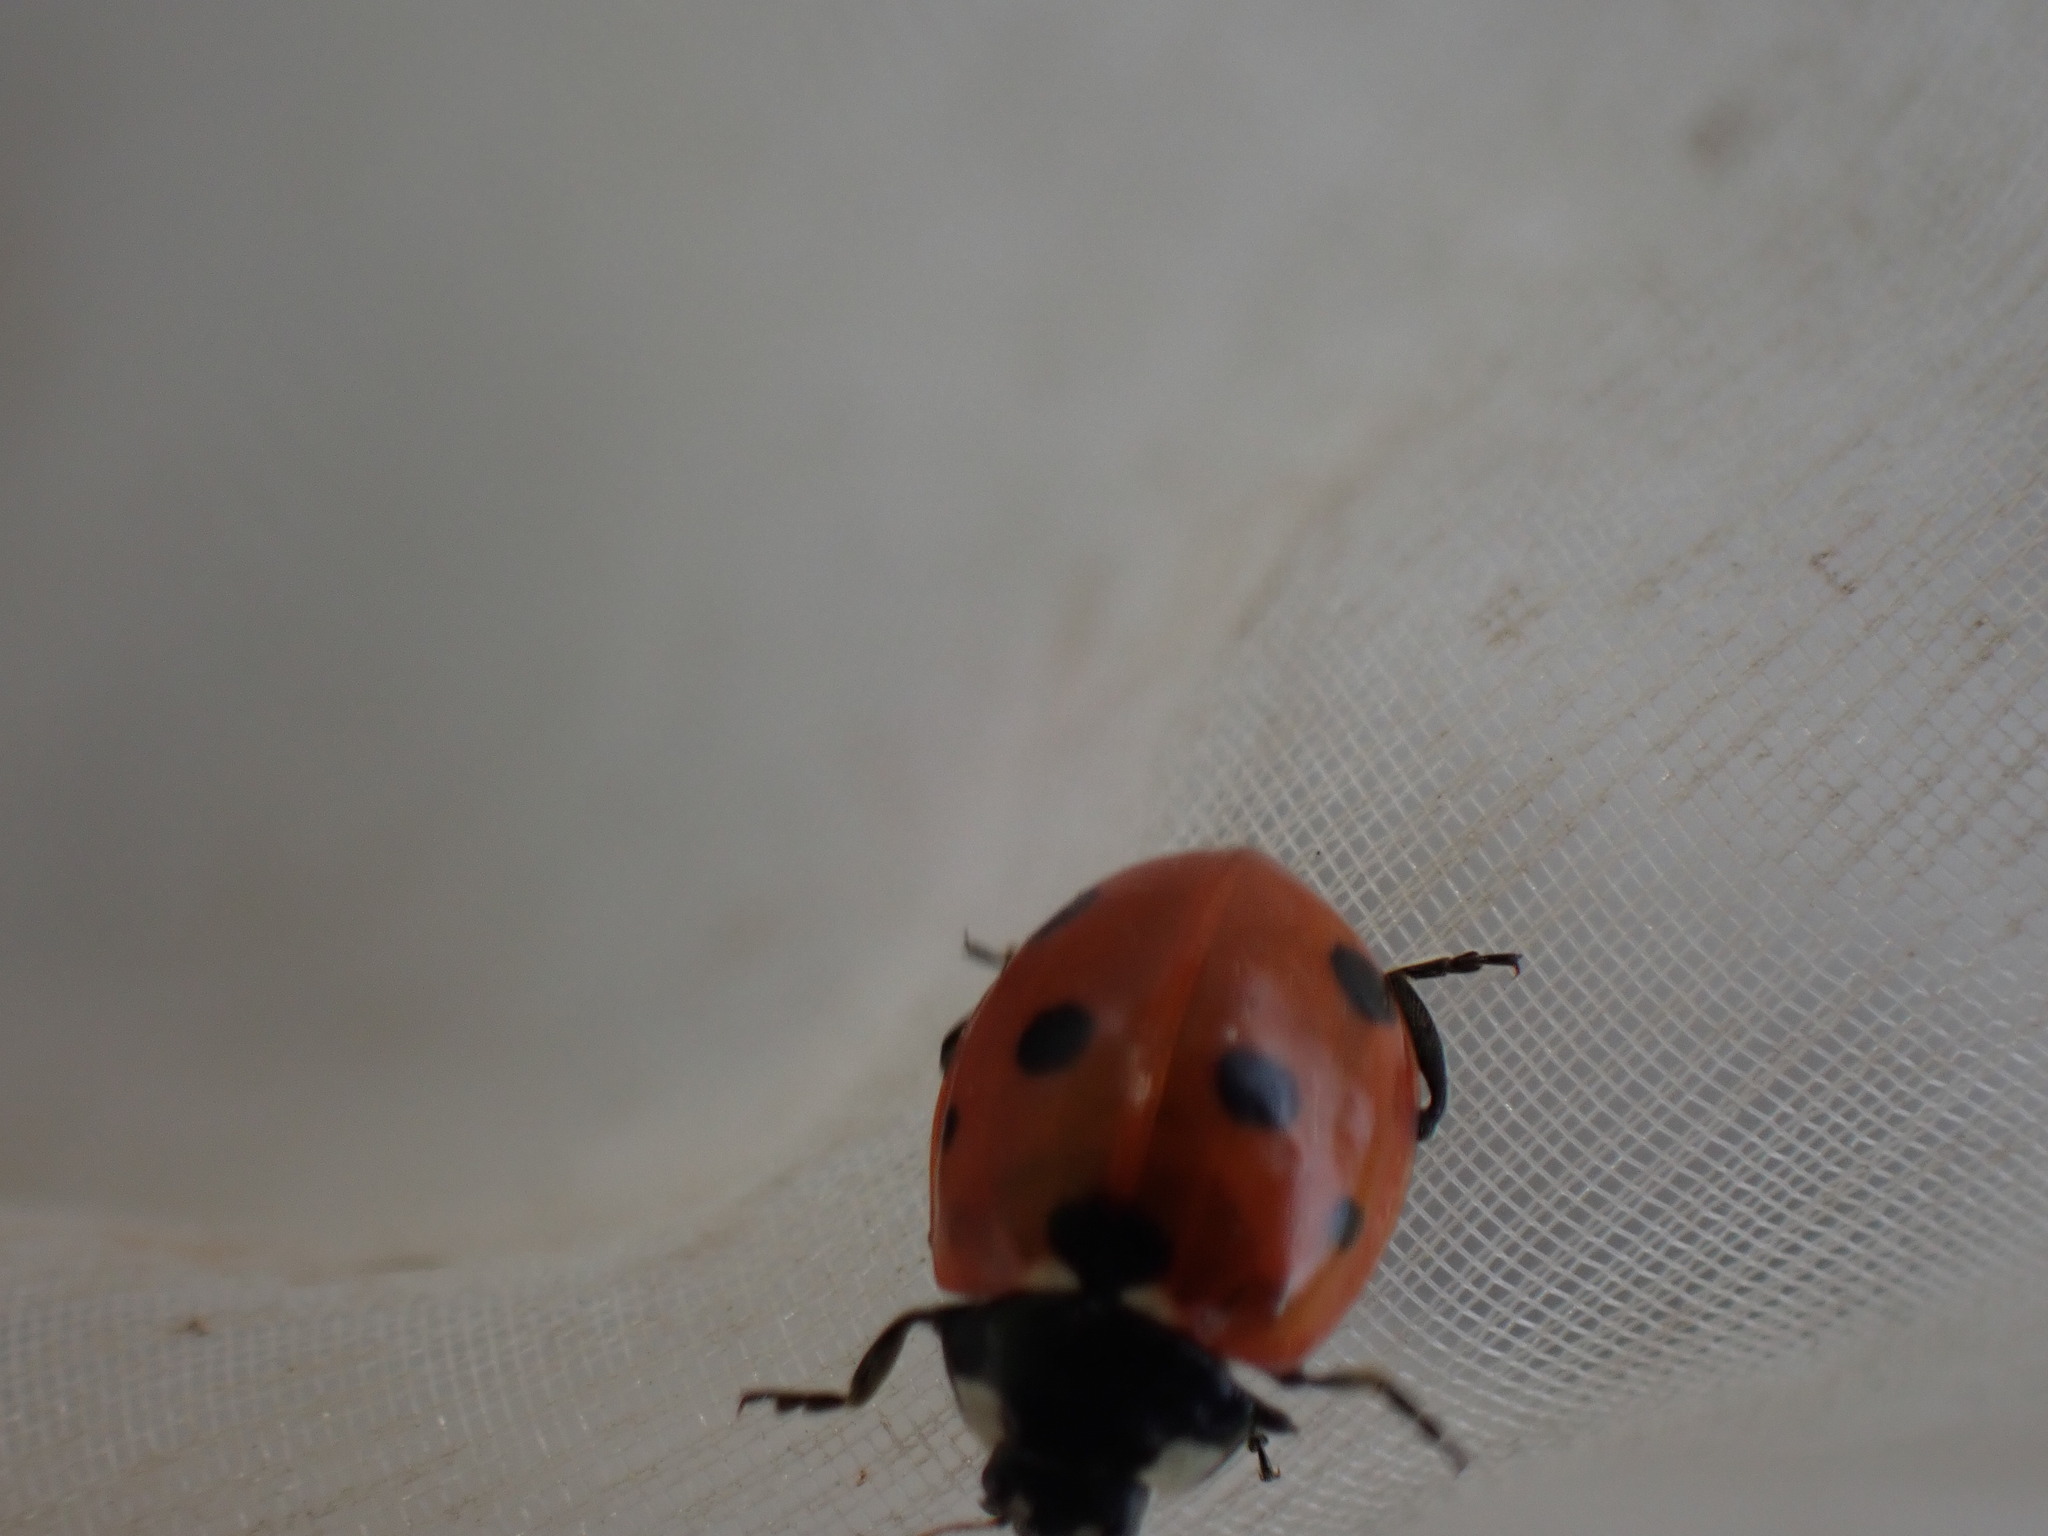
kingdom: Animalia
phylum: Arthropoda
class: Insecta
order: Coleoptera
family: Coccinellidae
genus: Coccinella
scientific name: Coccinella septempunctata
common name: Sevenspotted lady beetle
